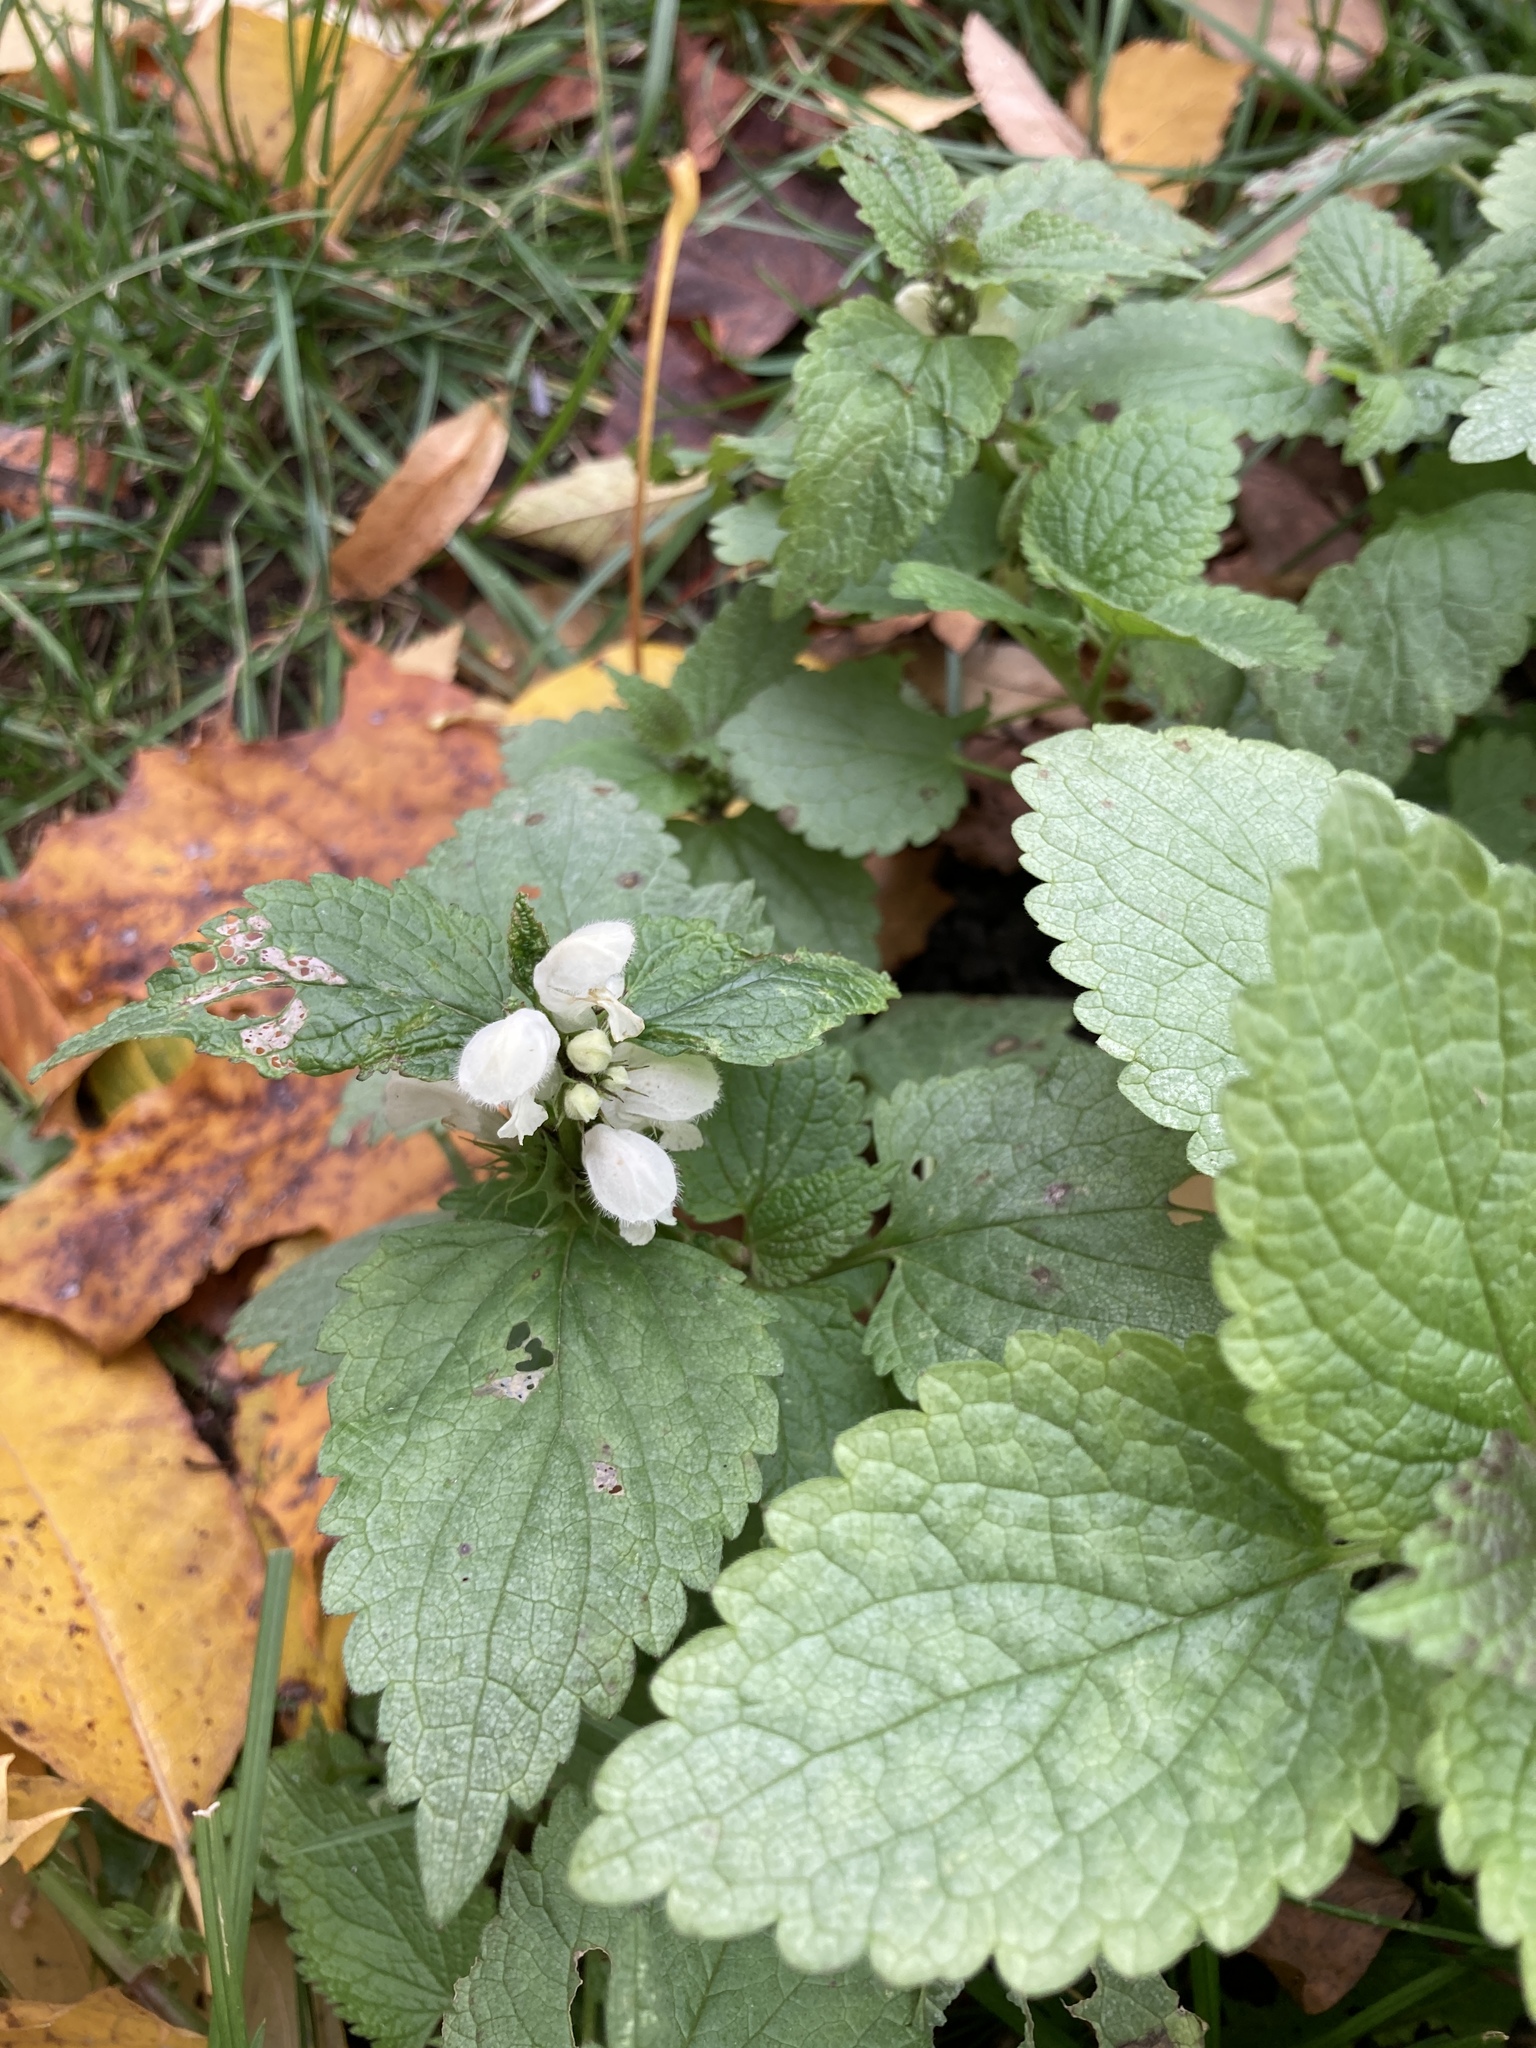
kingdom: Plantae
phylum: Tracheophyta
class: Magnoliopsida
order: Lamiales
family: Lamiaceae
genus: Lamium
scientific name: Lamium album
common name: White dead-nettle
